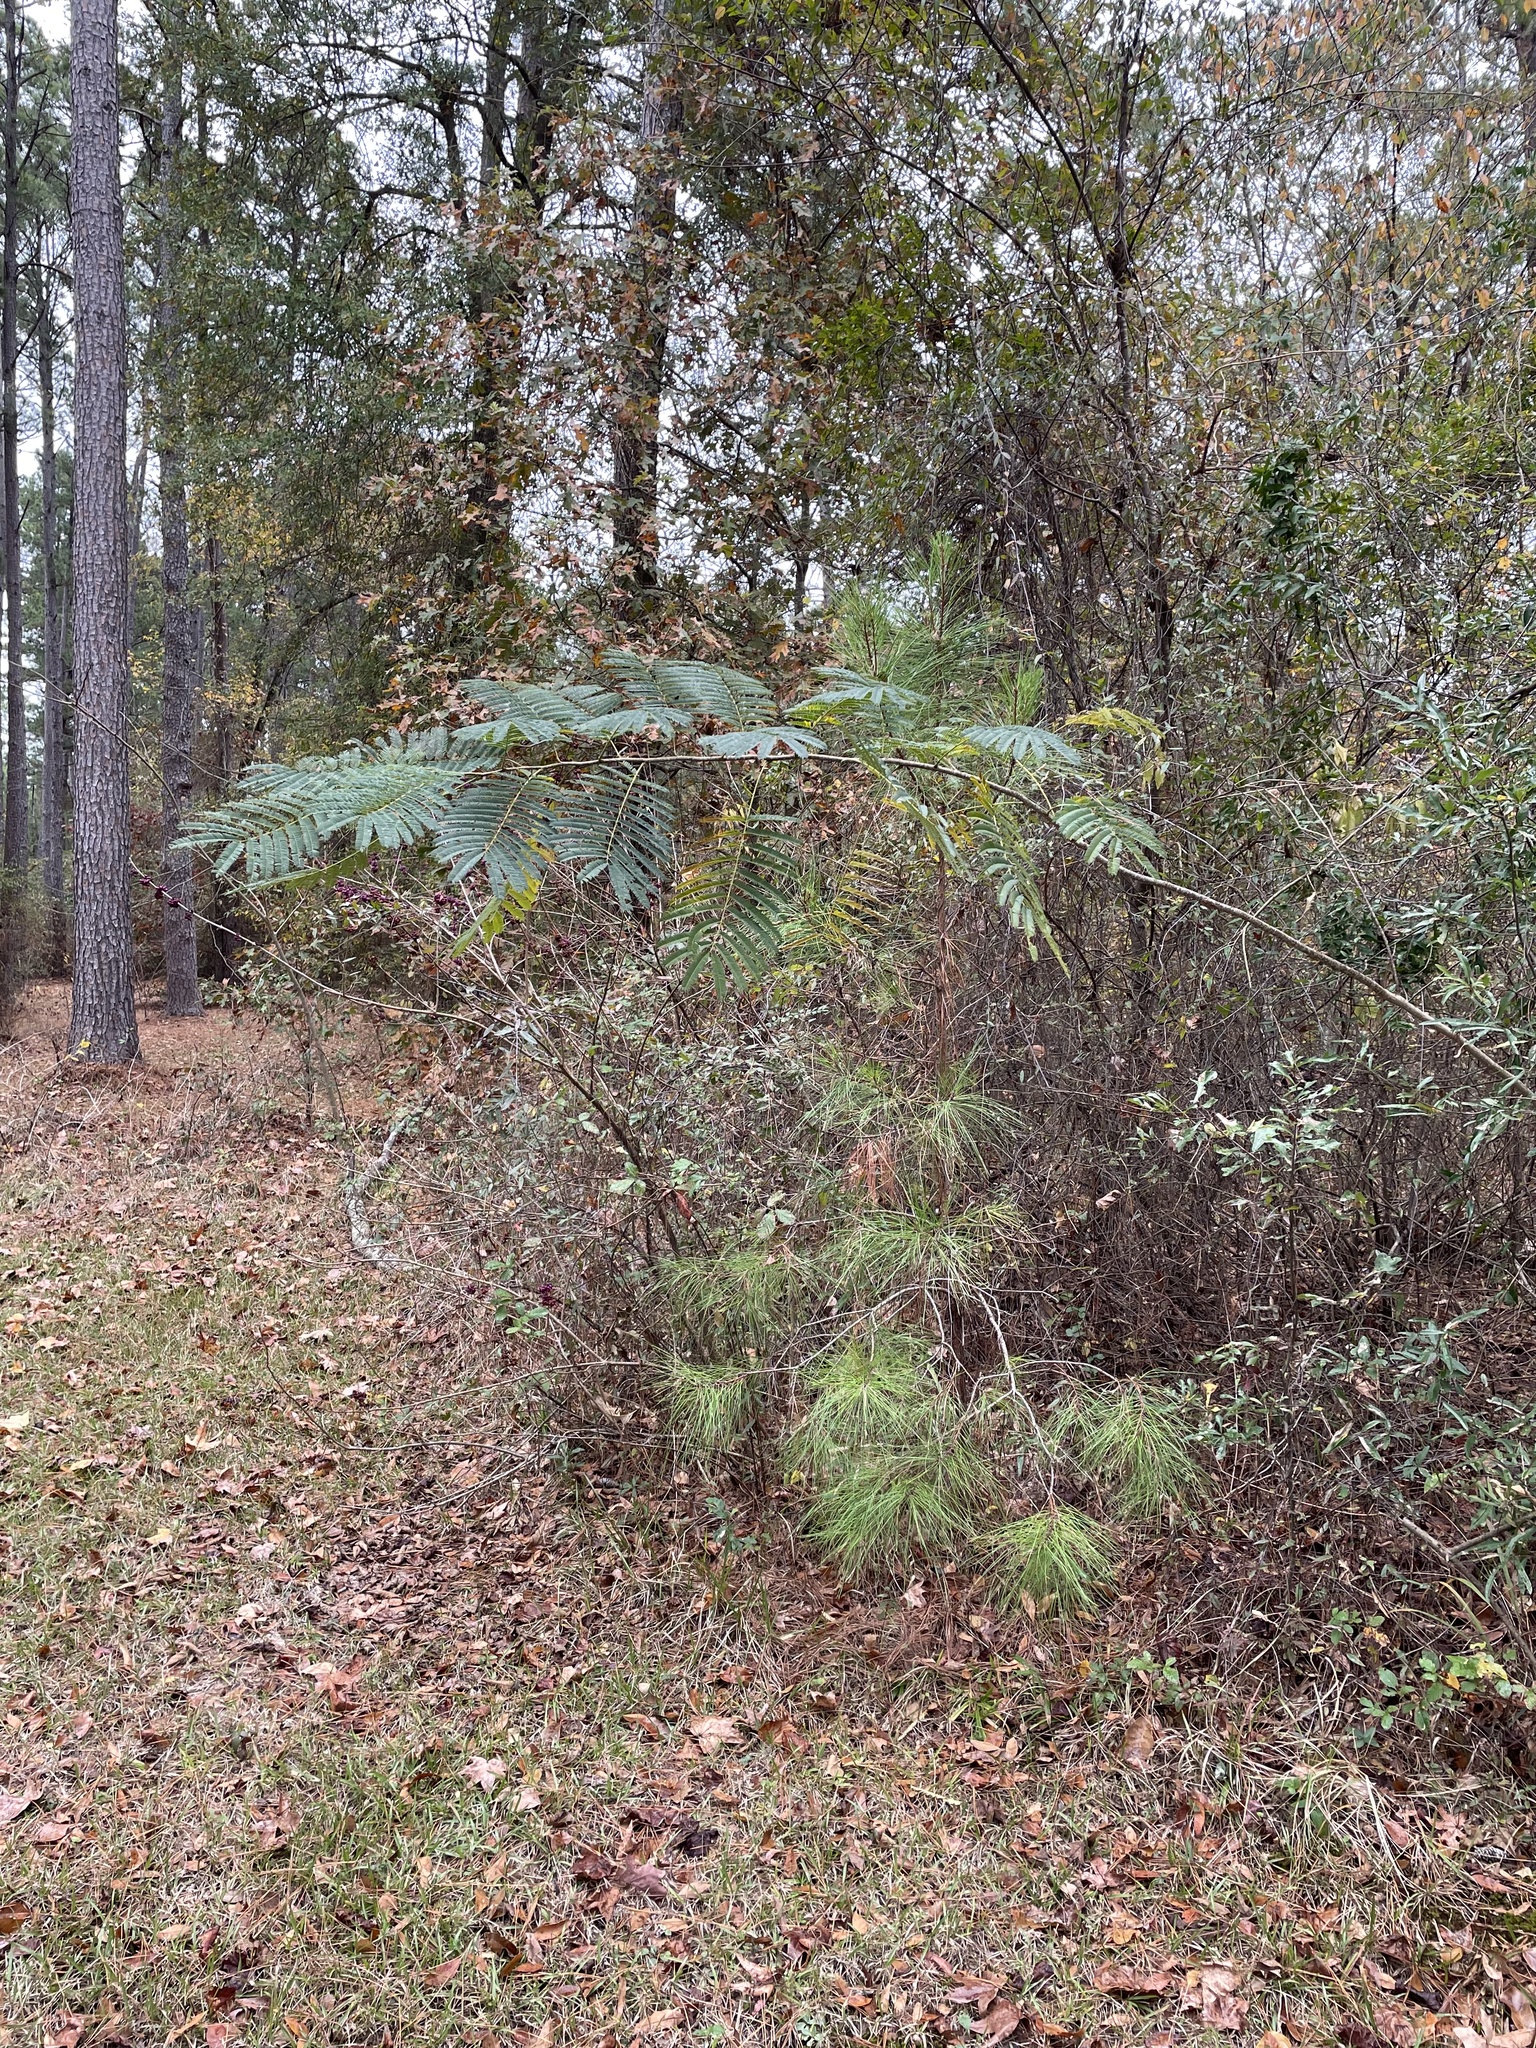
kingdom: Plantae
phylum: Tracheophyta
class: Magnoliopsida
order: Fabales
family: Fabaceae
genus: Albizia
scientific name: Albizia julibrissin
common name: Silktree
